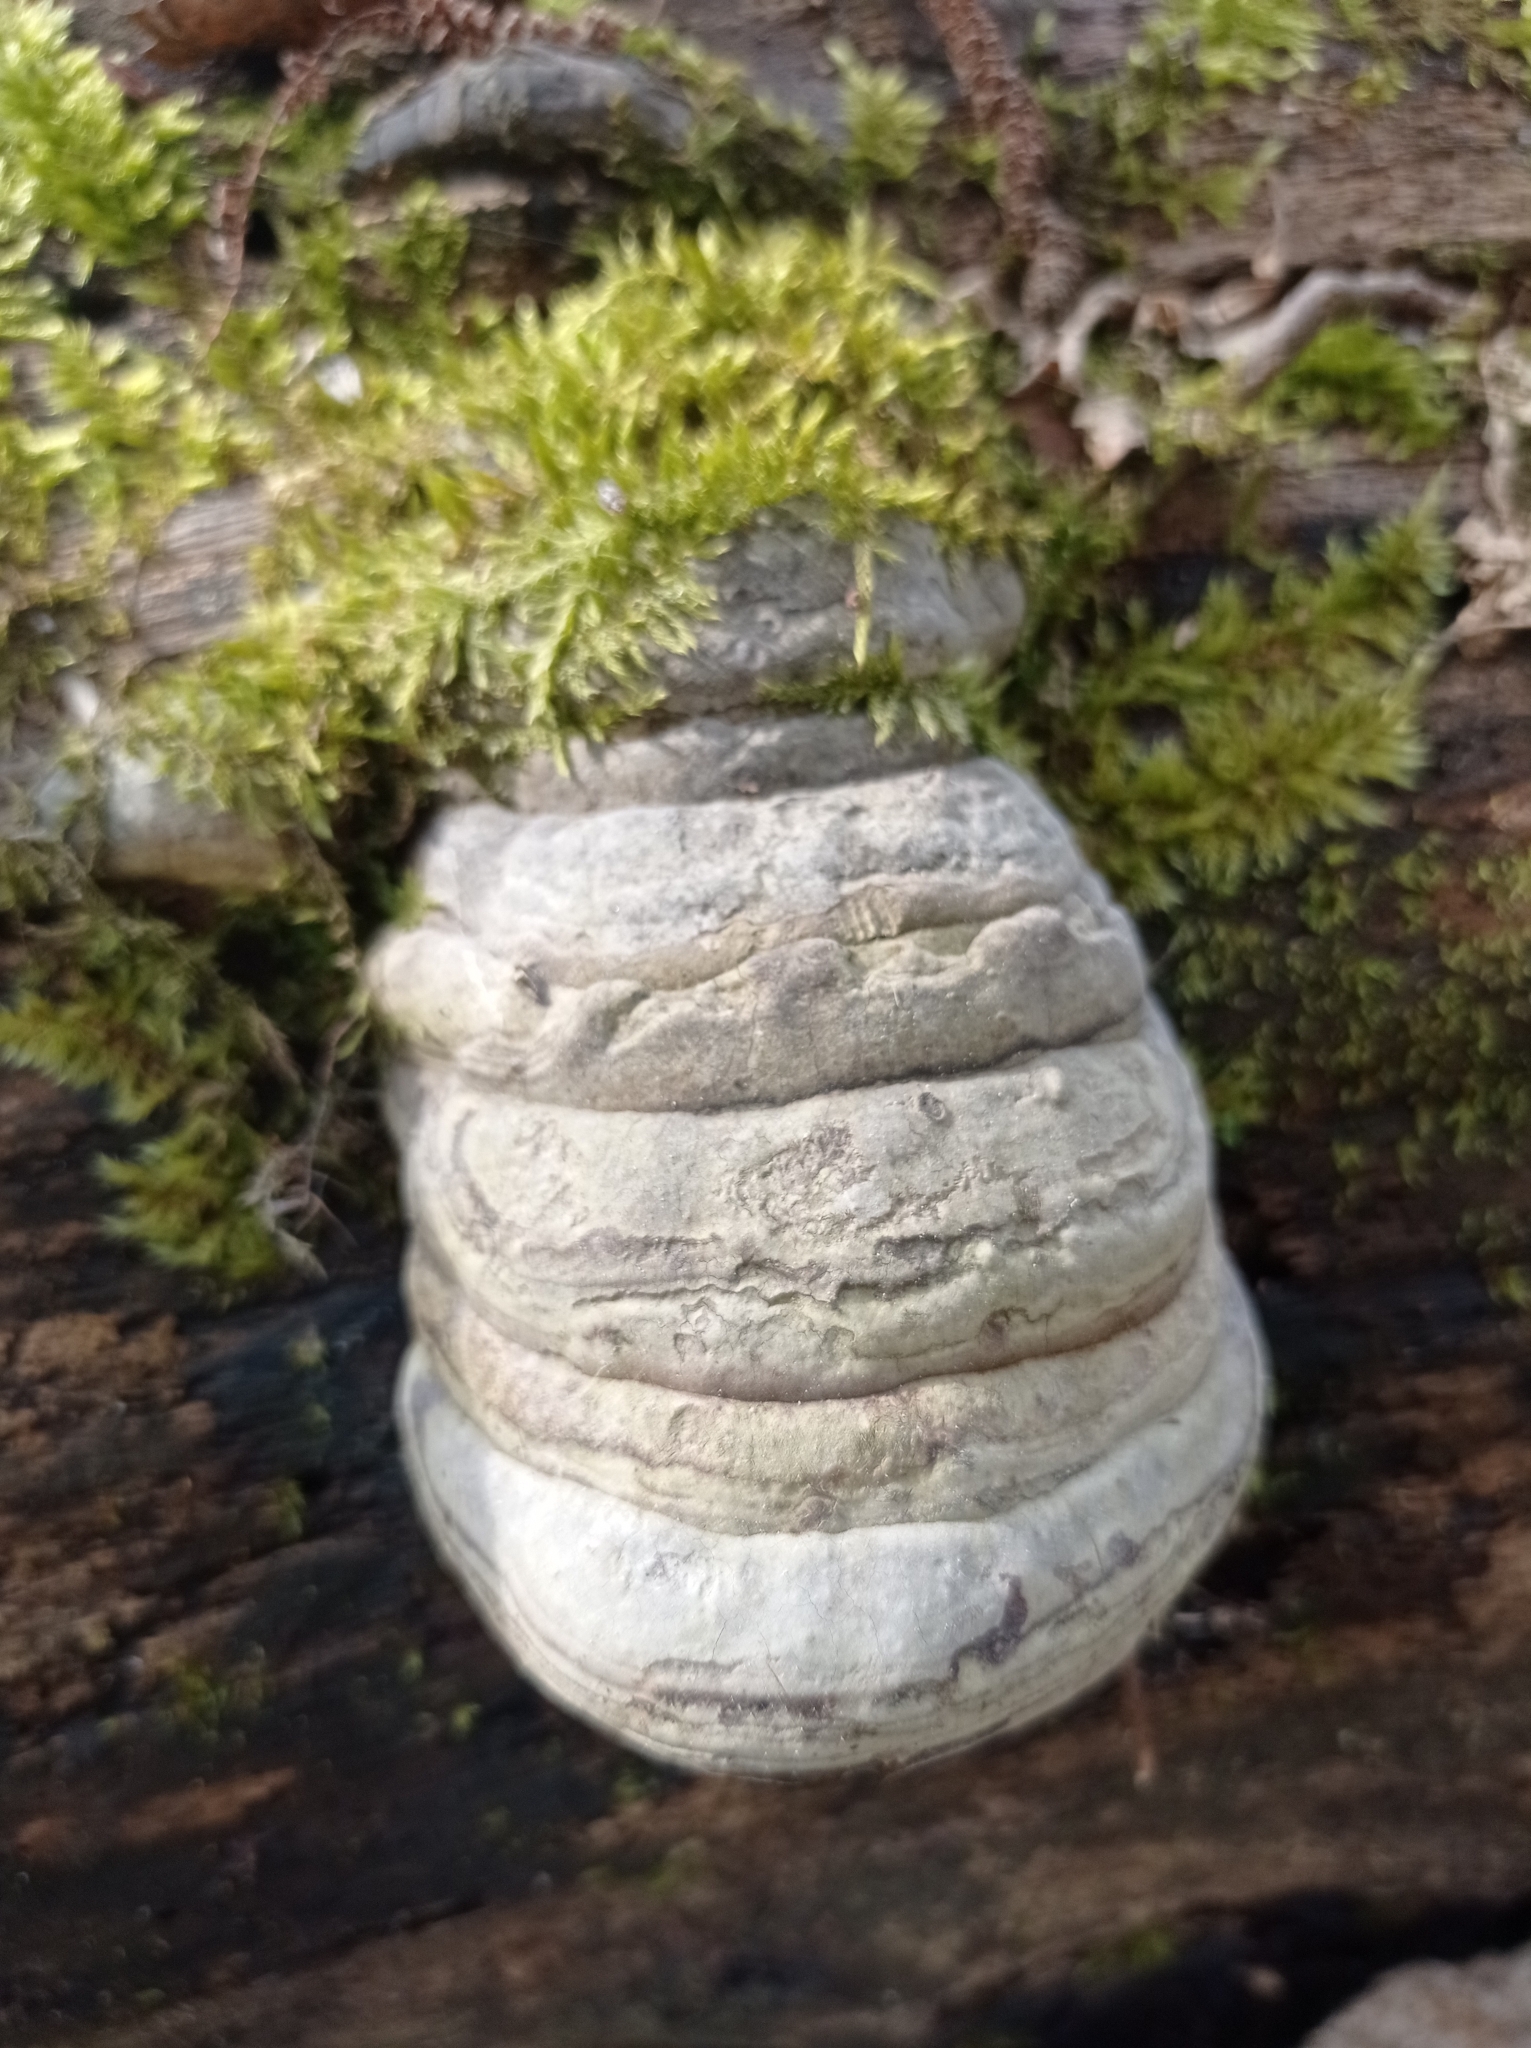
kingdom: Fungi
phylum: Basidiomycota
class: Agaricomycetes
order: Polyporales
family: Polyporaceae
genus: Fomes
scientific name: Fomes fomentarius
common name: Hoof fungus
